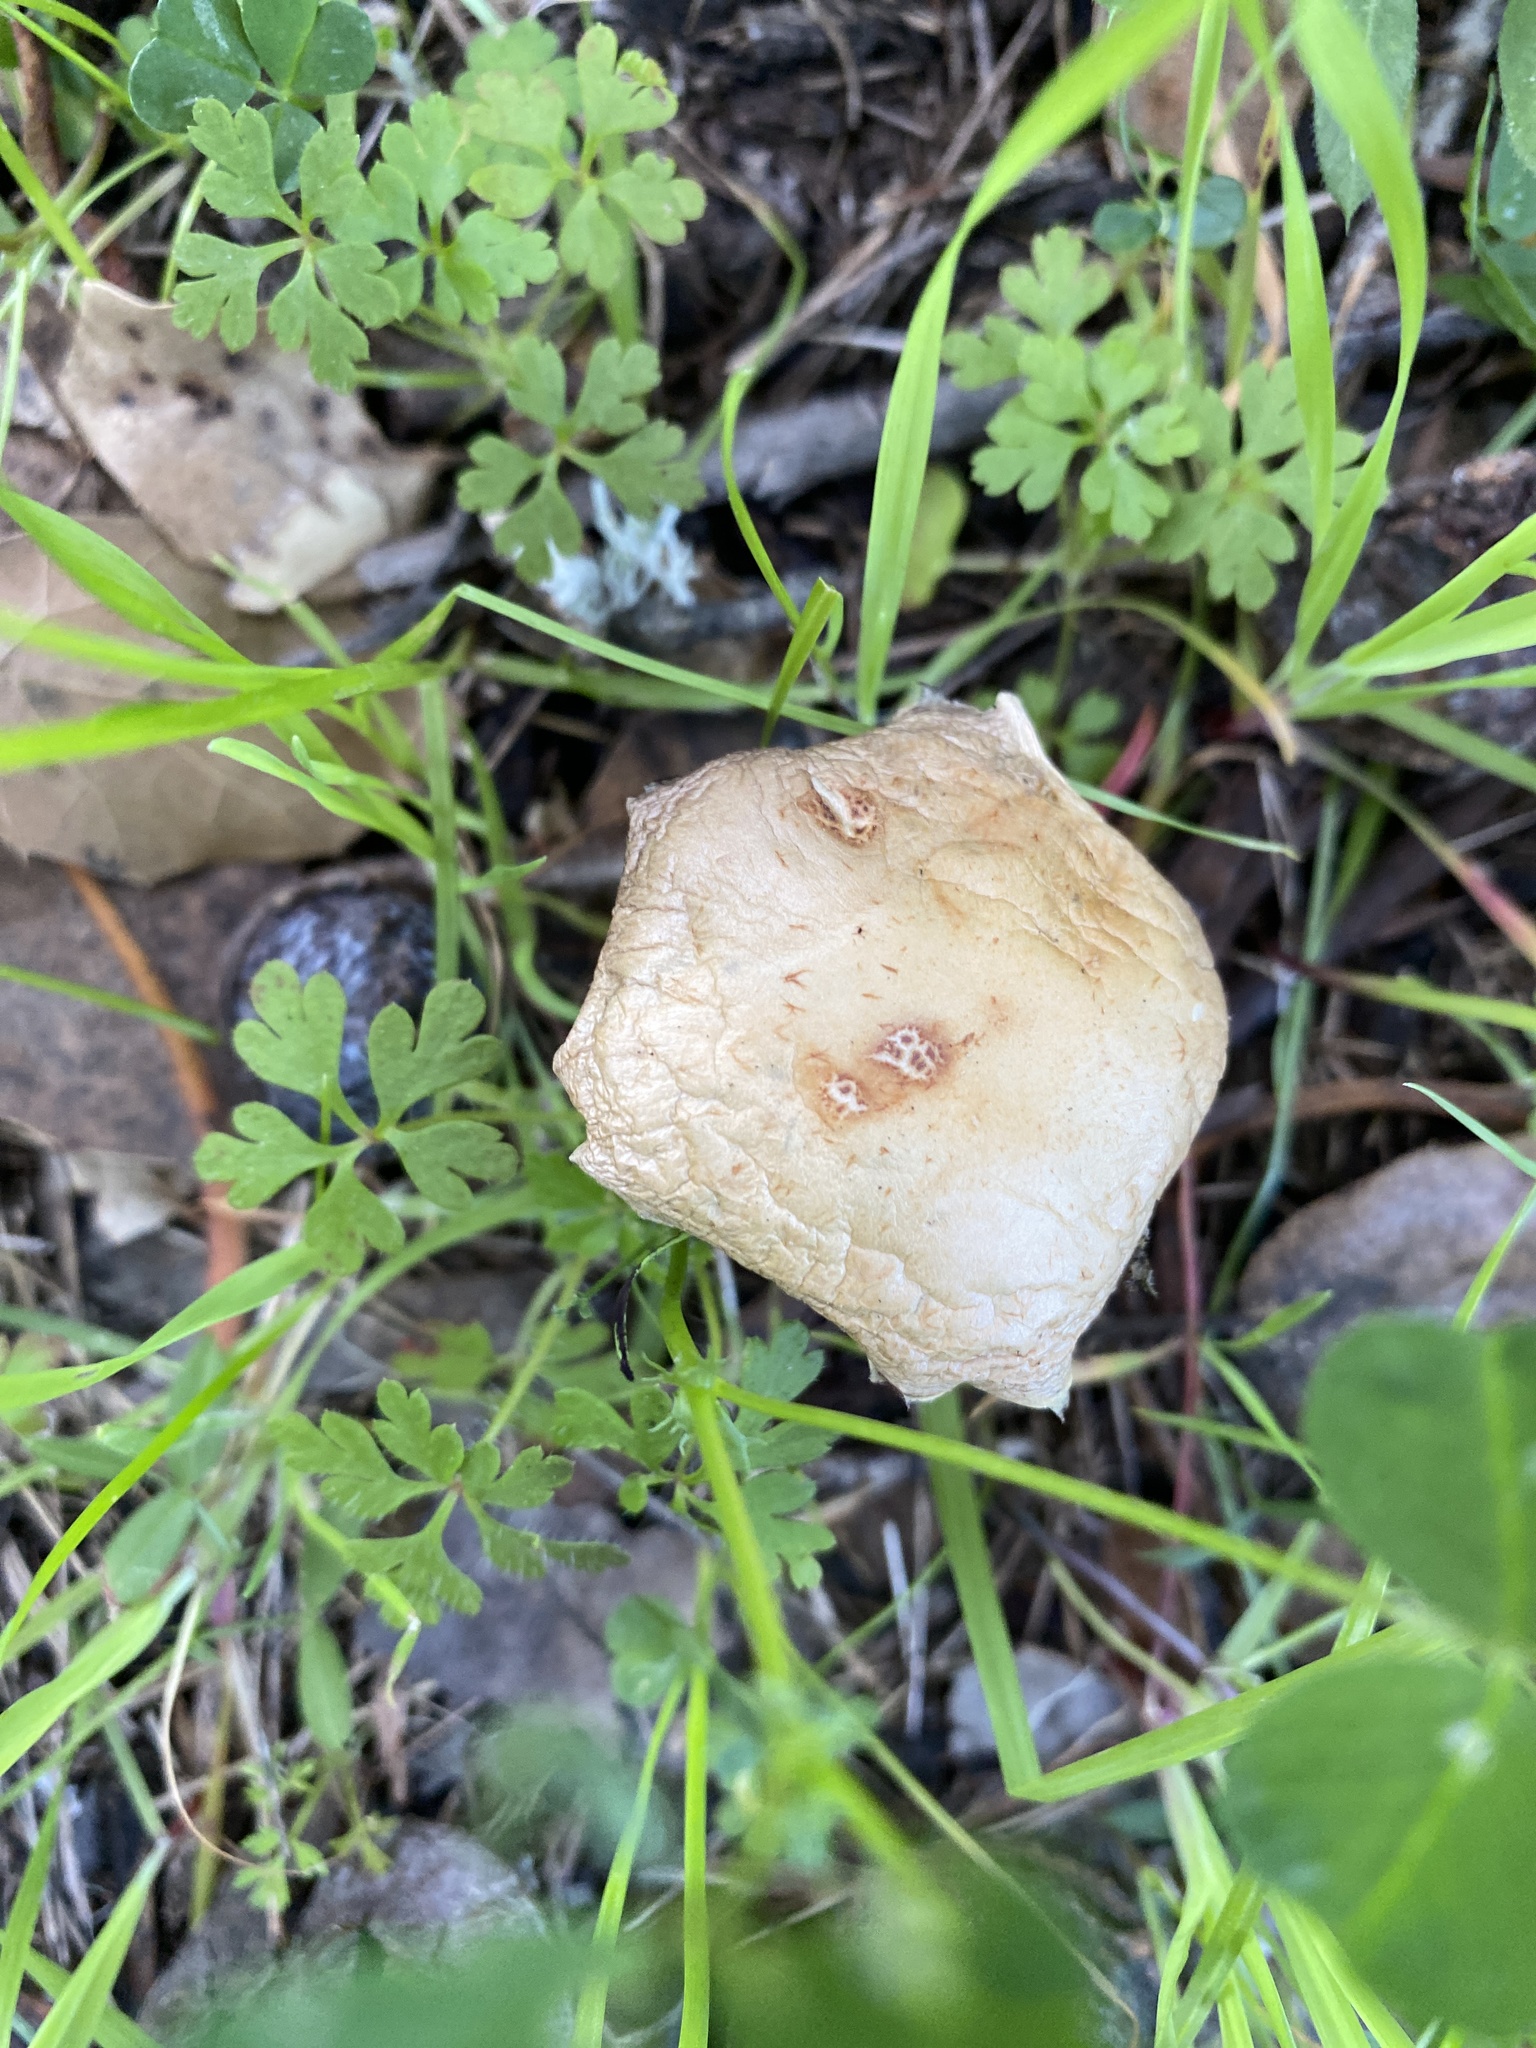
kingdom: Fungi
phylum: Basidiomycota
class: Agaricomycetes
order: Agaricales
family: Strophariaceae
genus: Leratiomyces
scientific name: Leratiomyces percevalii
